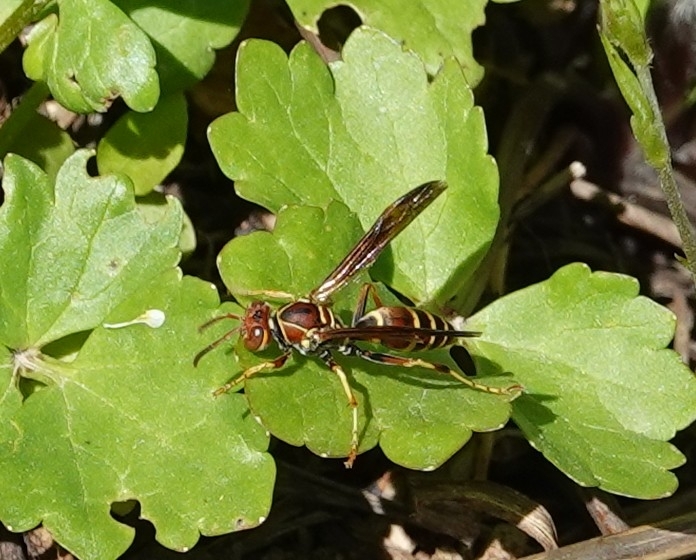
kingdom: Animalia
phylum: Arthropoda
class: Insecta
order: Hymenoptera
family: Eumenidae
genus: Polistes
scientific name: Polistes dorsalis
